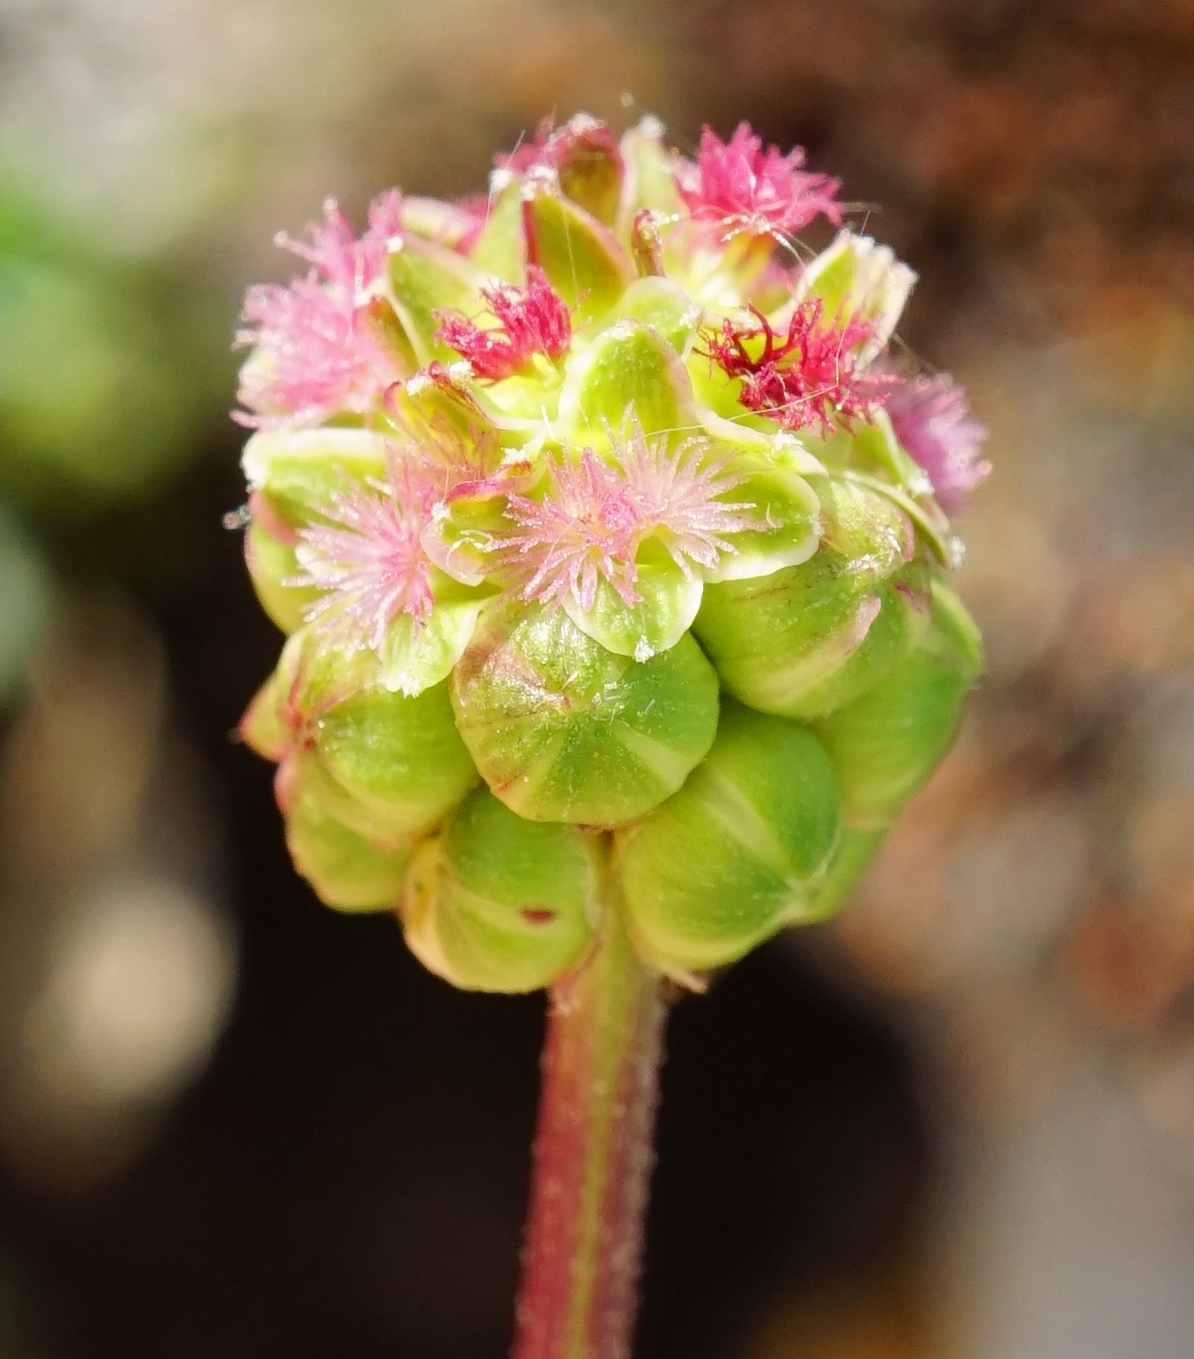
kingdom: Plantae
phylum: Tracheophyta
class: Magnoliopsida
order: Rosales
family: Rosaceae
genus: Poterium
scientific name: Poterium sanguisorba
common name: Salad burnet
